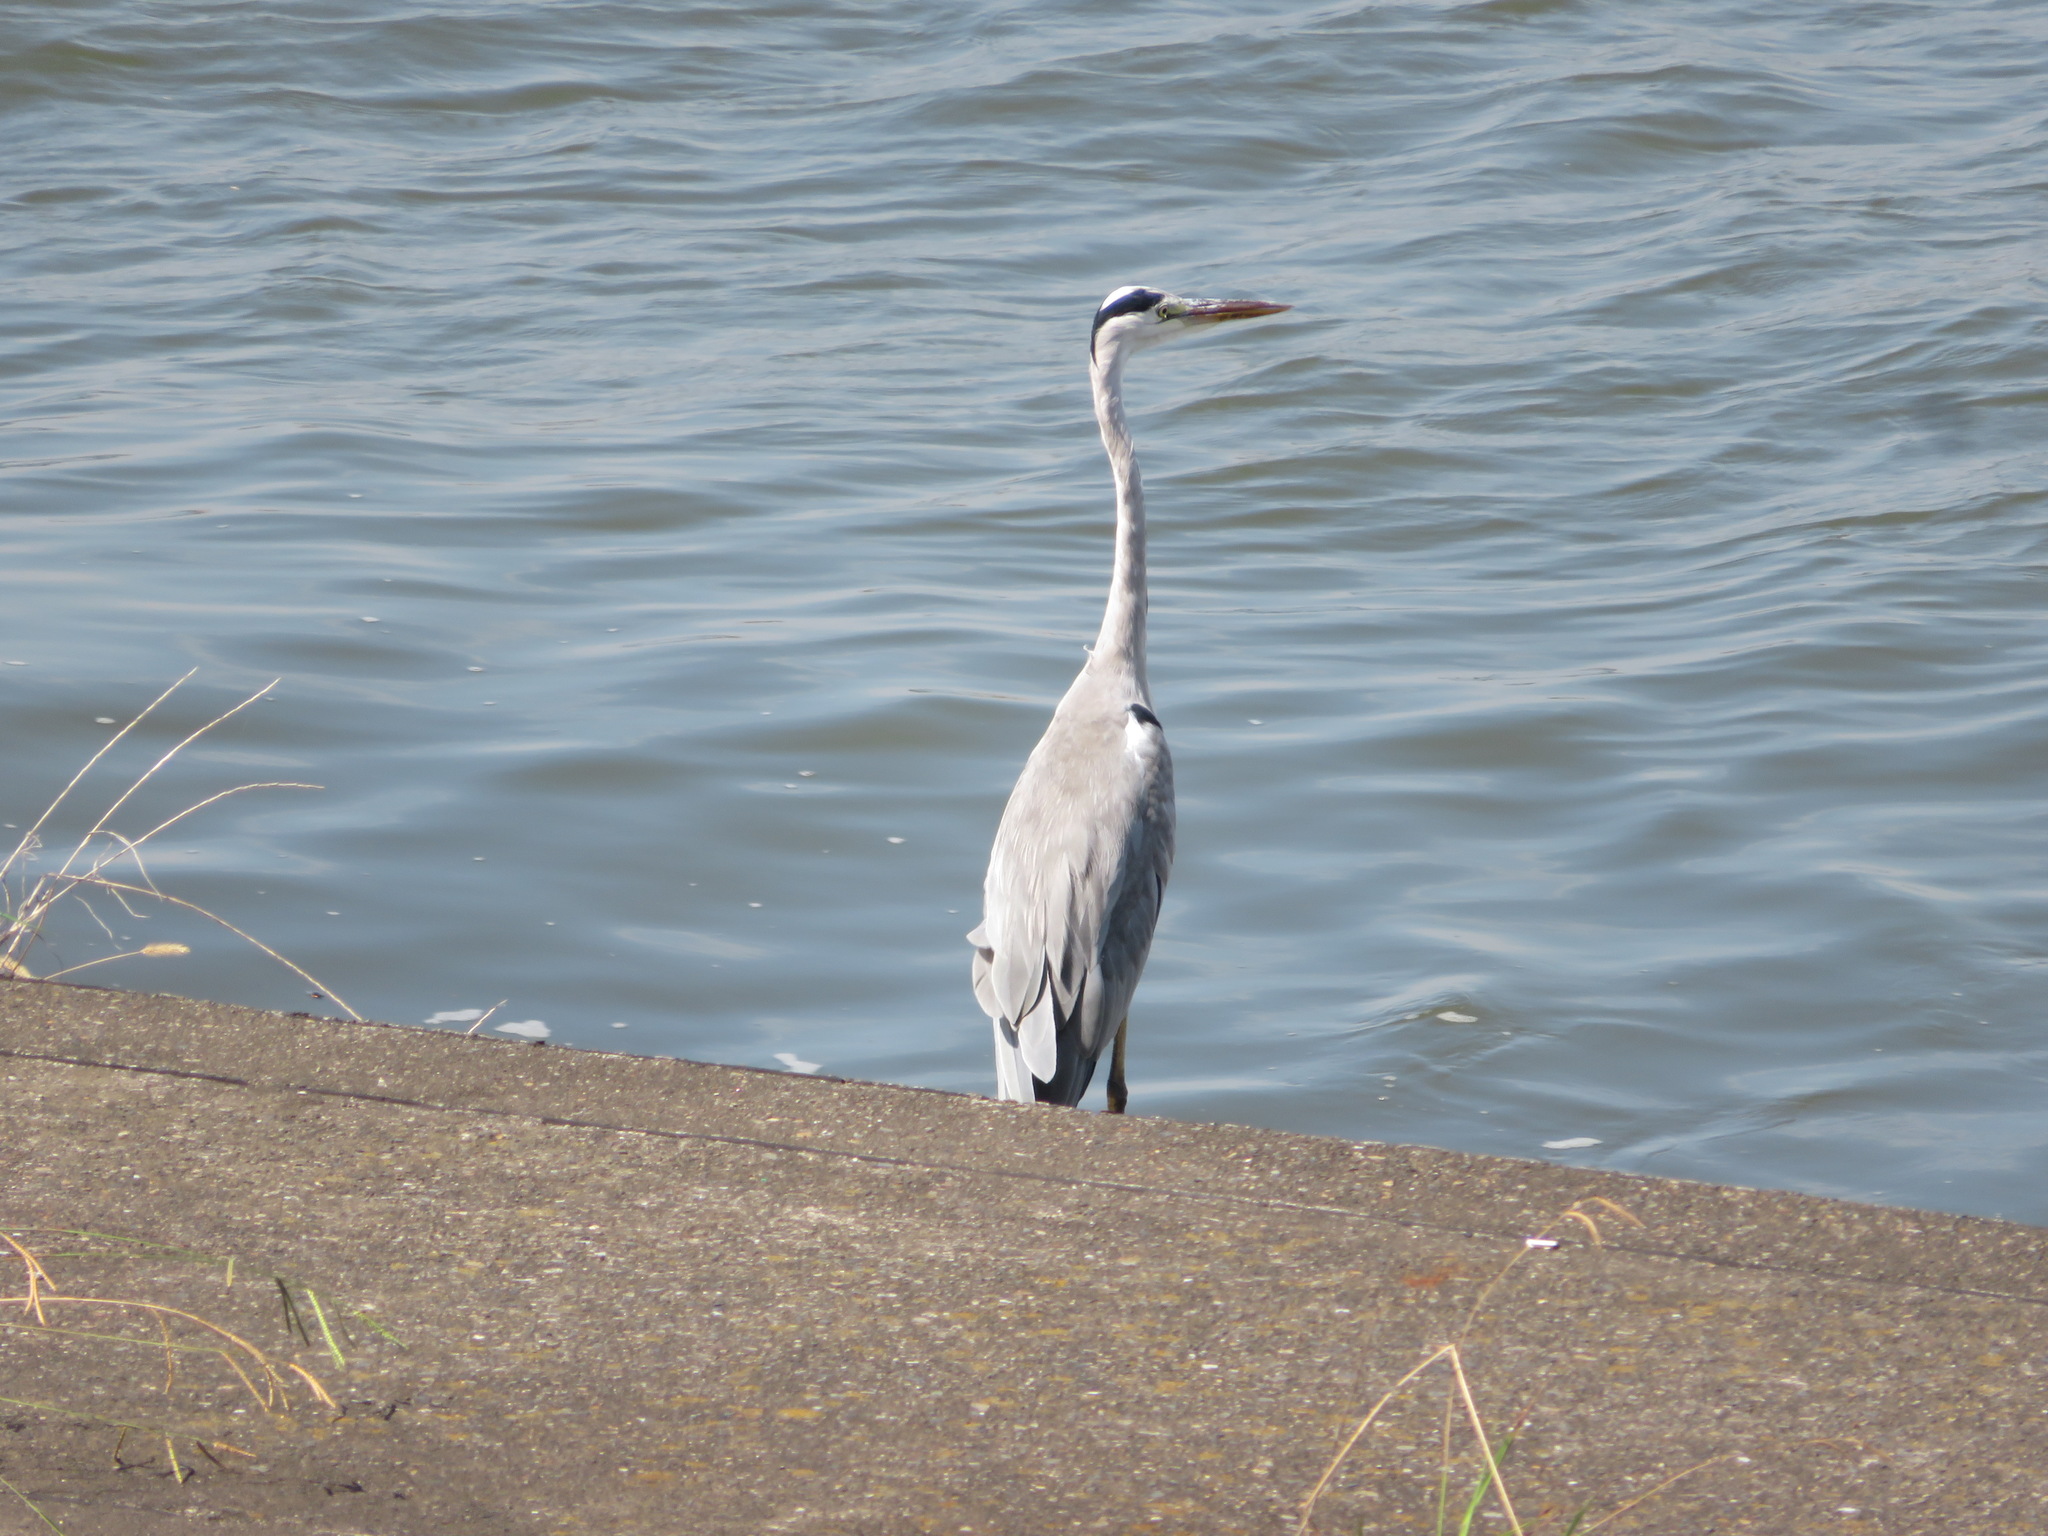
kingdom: Animalia
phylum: Chordata
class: Aves
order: Pelecaniformes
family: Ardeidae
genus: Ardea
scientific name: Ardea cinerea
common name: Grey heron
